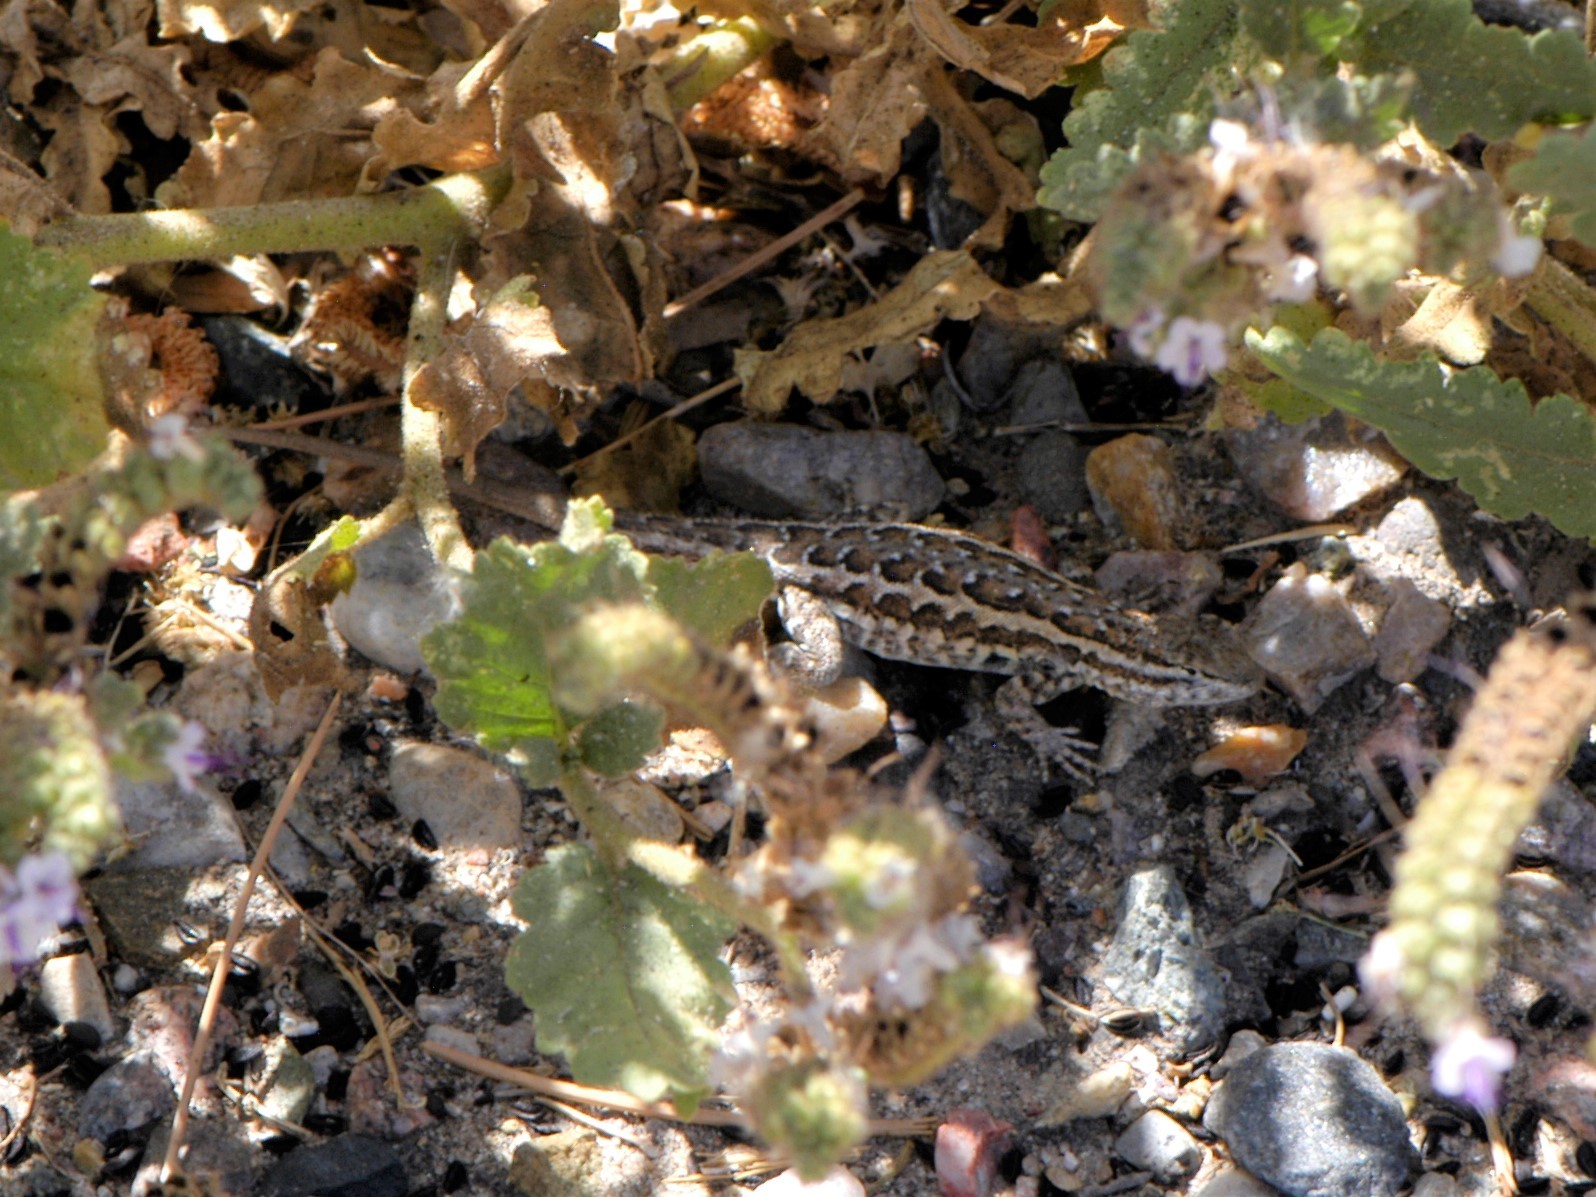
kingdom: Animalia
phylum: Chordata
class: Squamata
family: Phrynosomatidae
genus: Uta
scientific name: Uta stansburiana
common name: Side-blotched lizard
